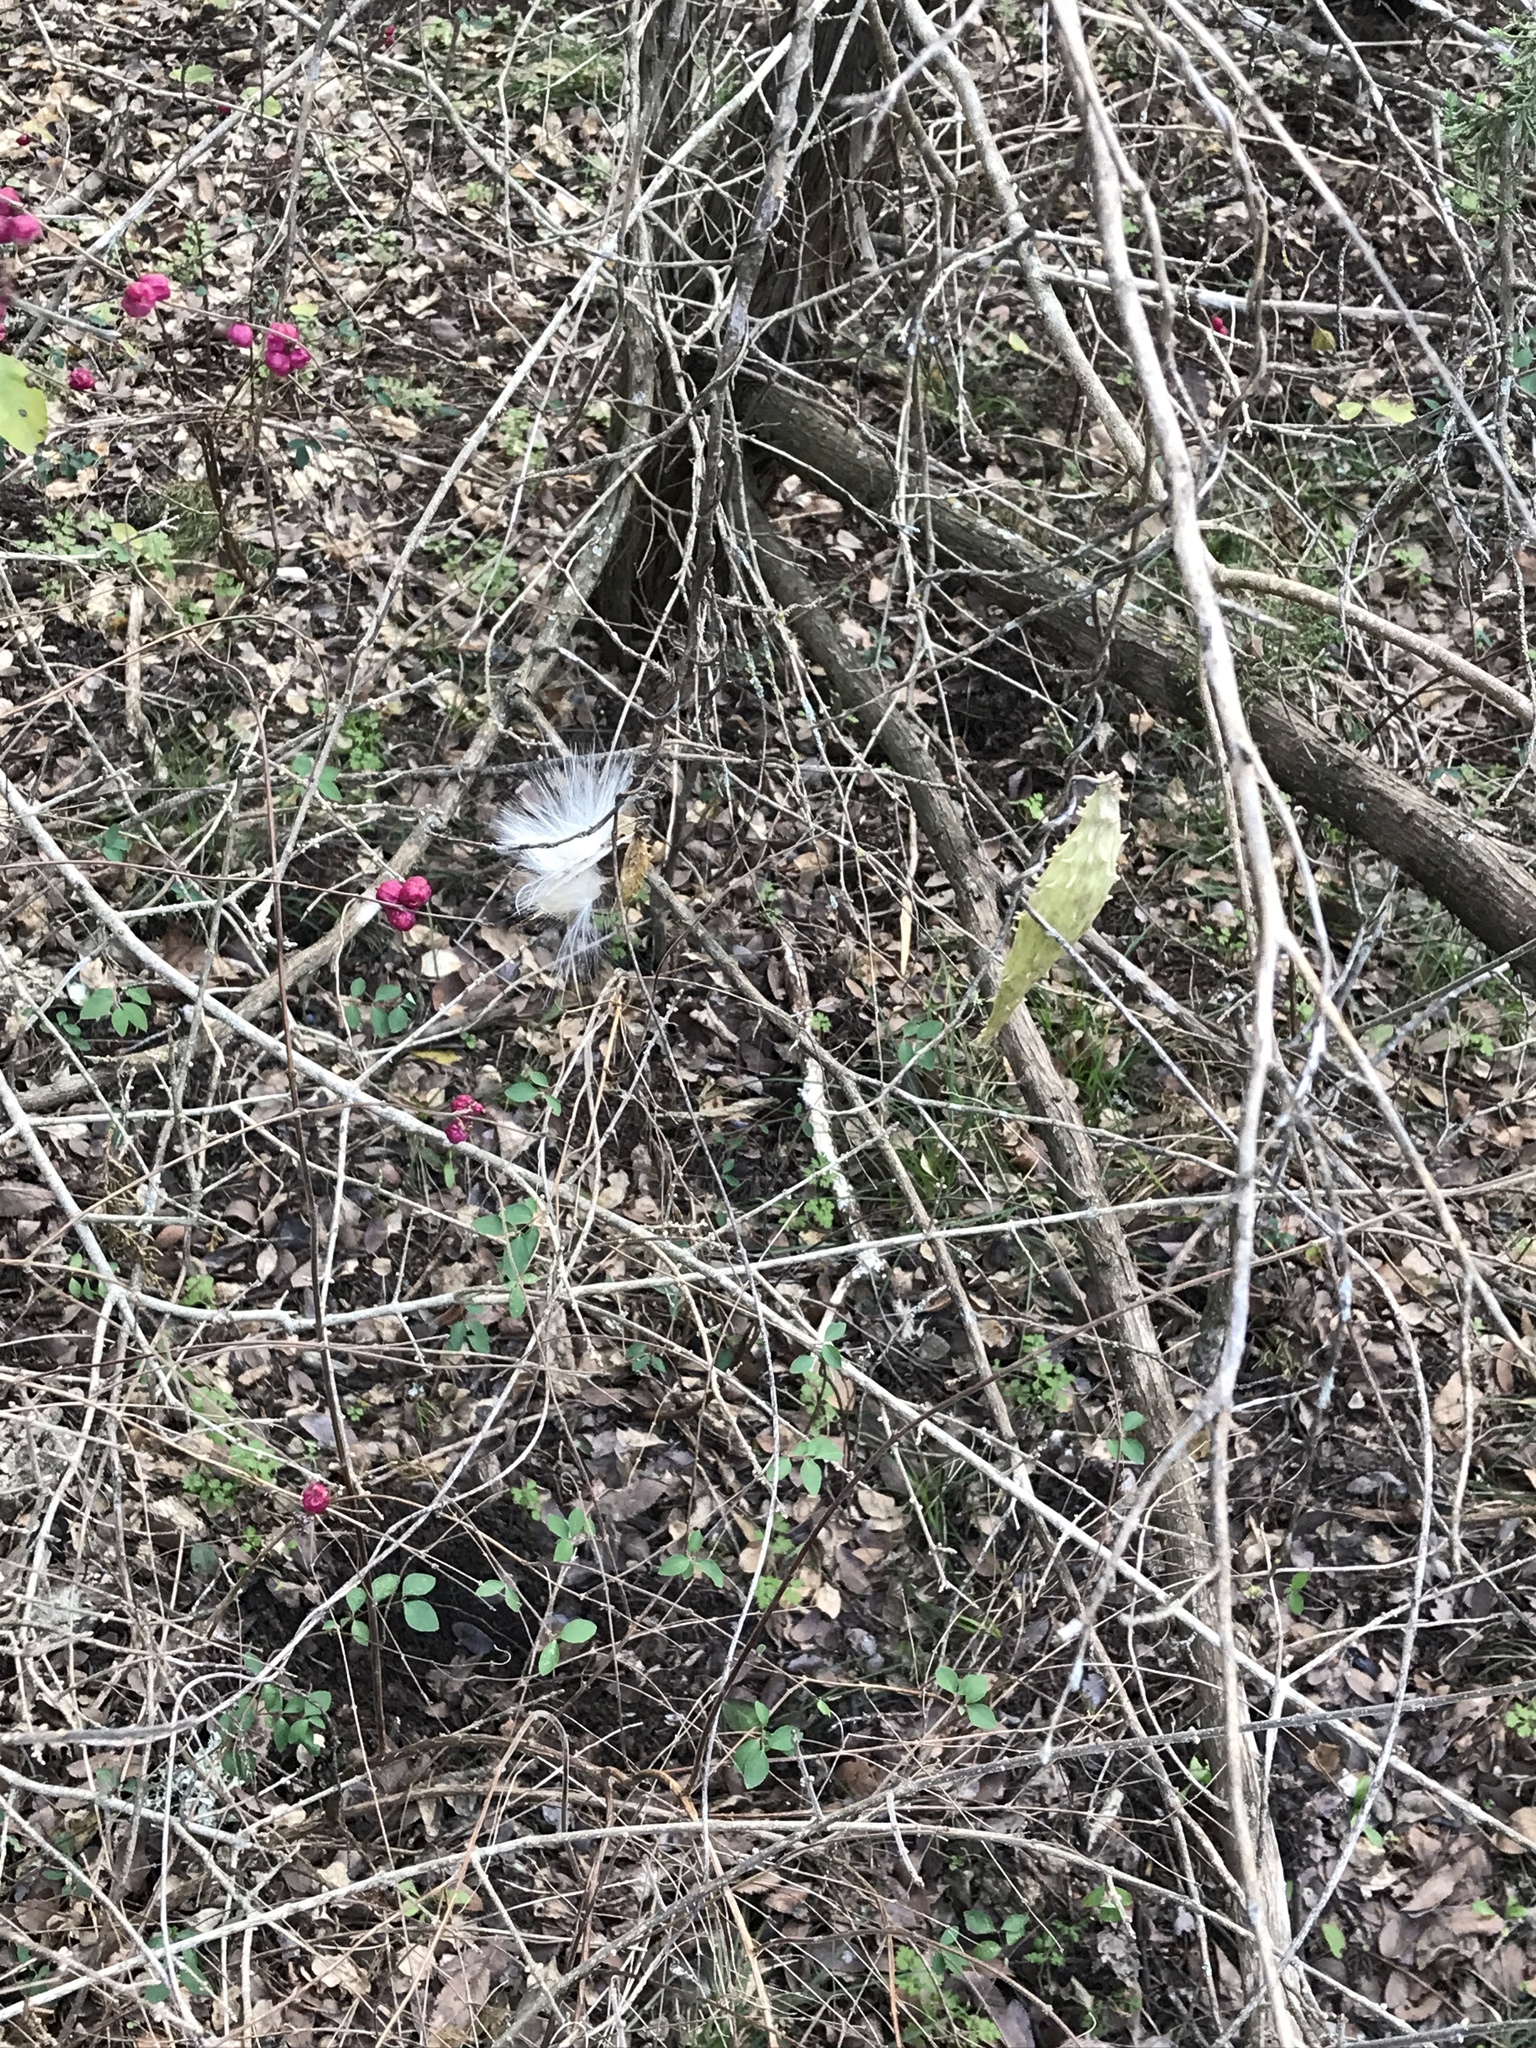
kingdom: Plantae
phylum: Tracheophyta
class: Magnoliopsida
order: Gentianales
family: Apocynaceae
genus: Dictyanthus
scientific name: Dictyanthus reticulatus
